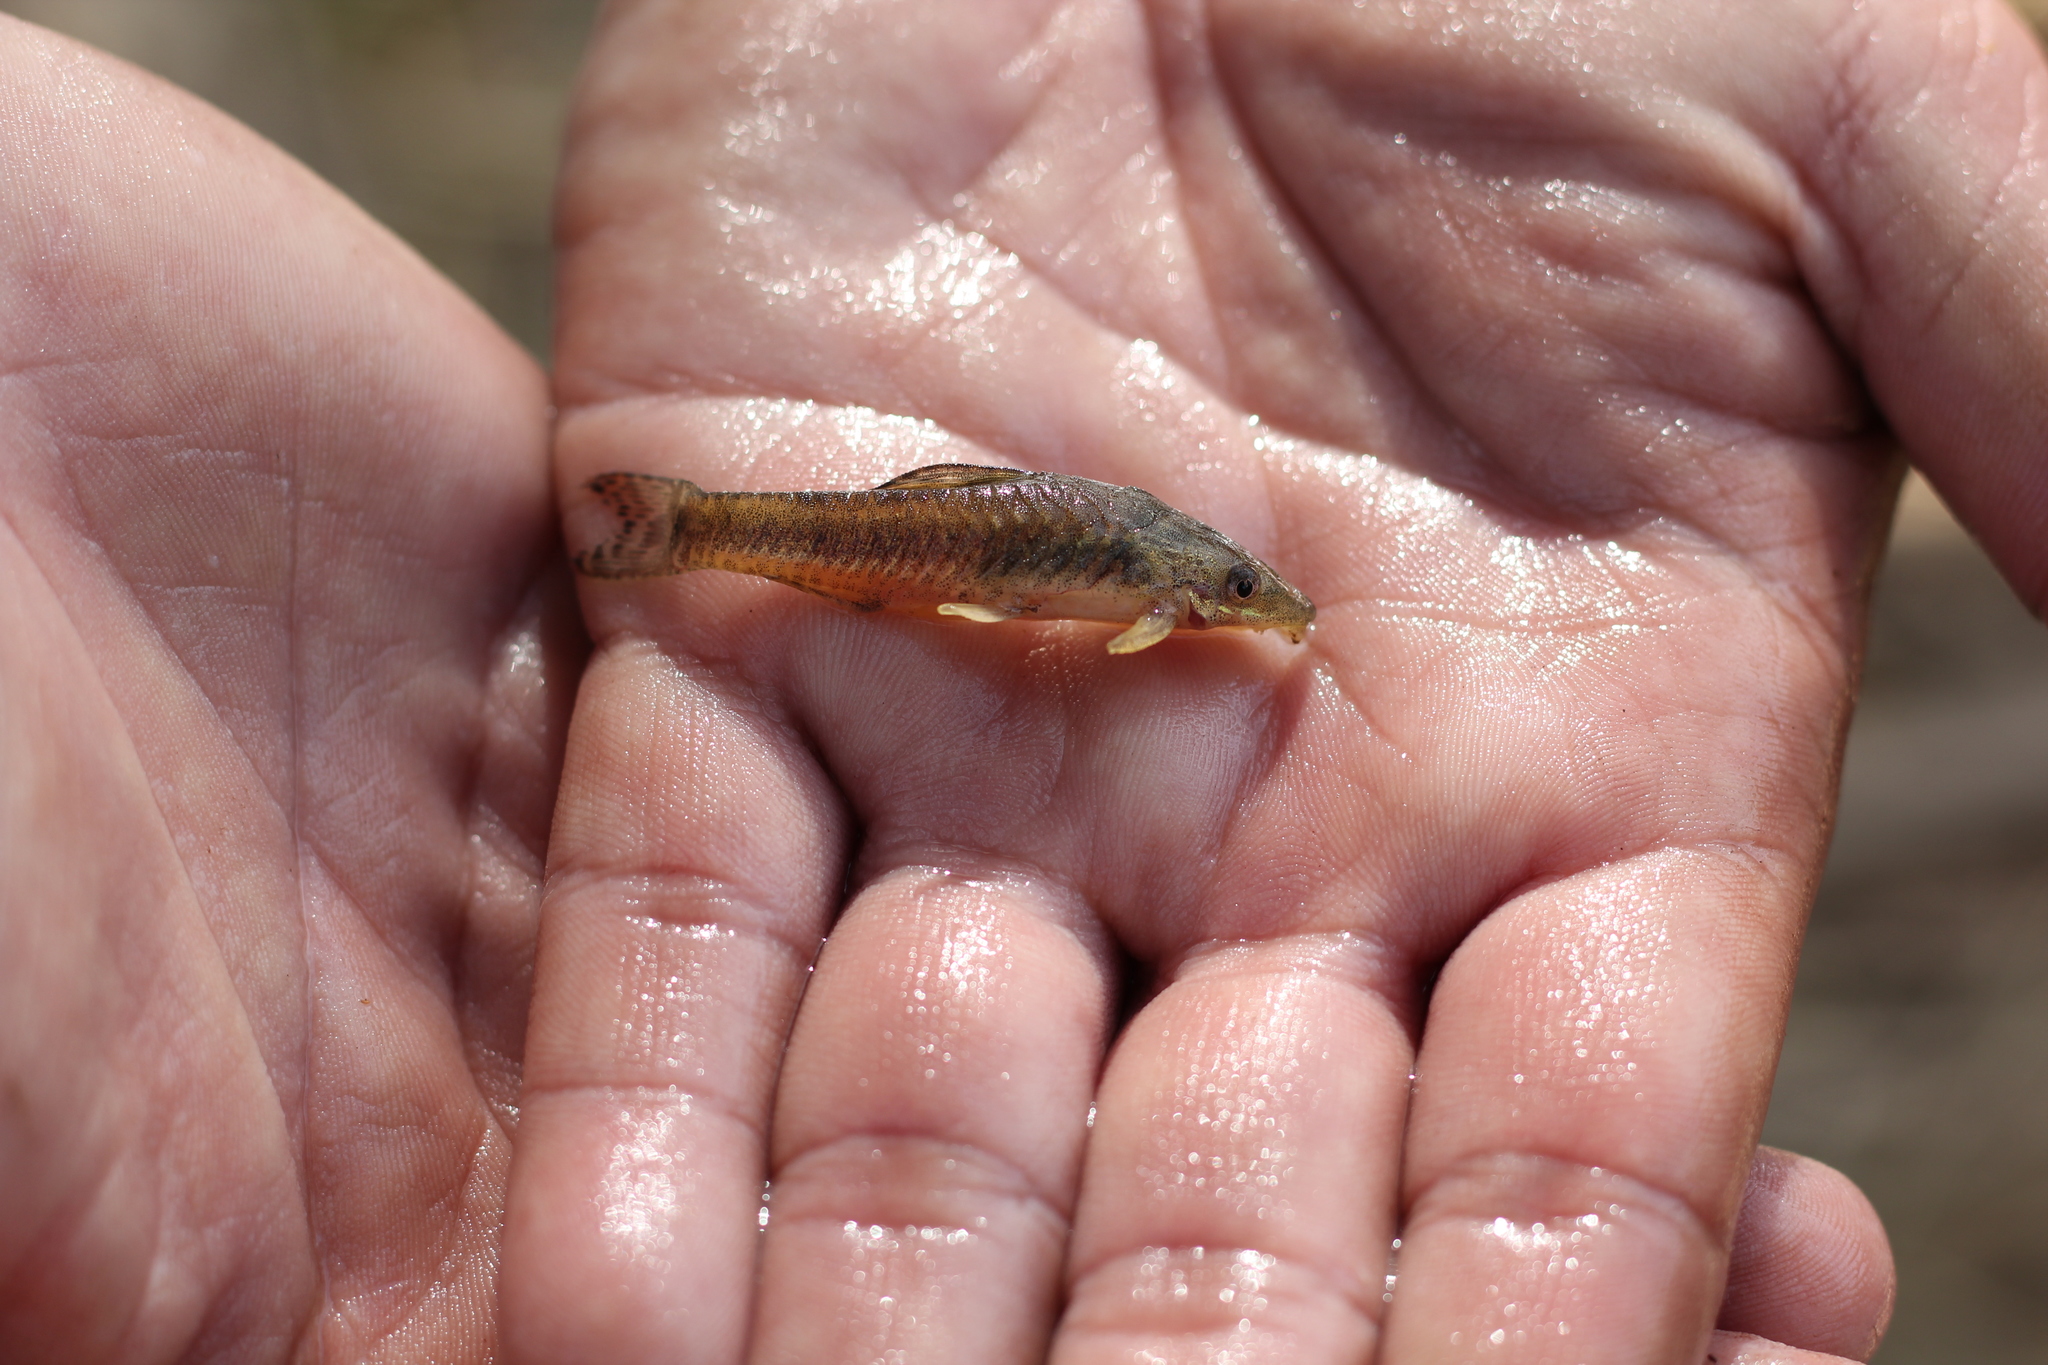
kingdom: Animalia
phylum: Chordata
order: Siluriformes
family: Loricariidae
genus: Otocinclus
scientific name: Otocinclus arnoldi
